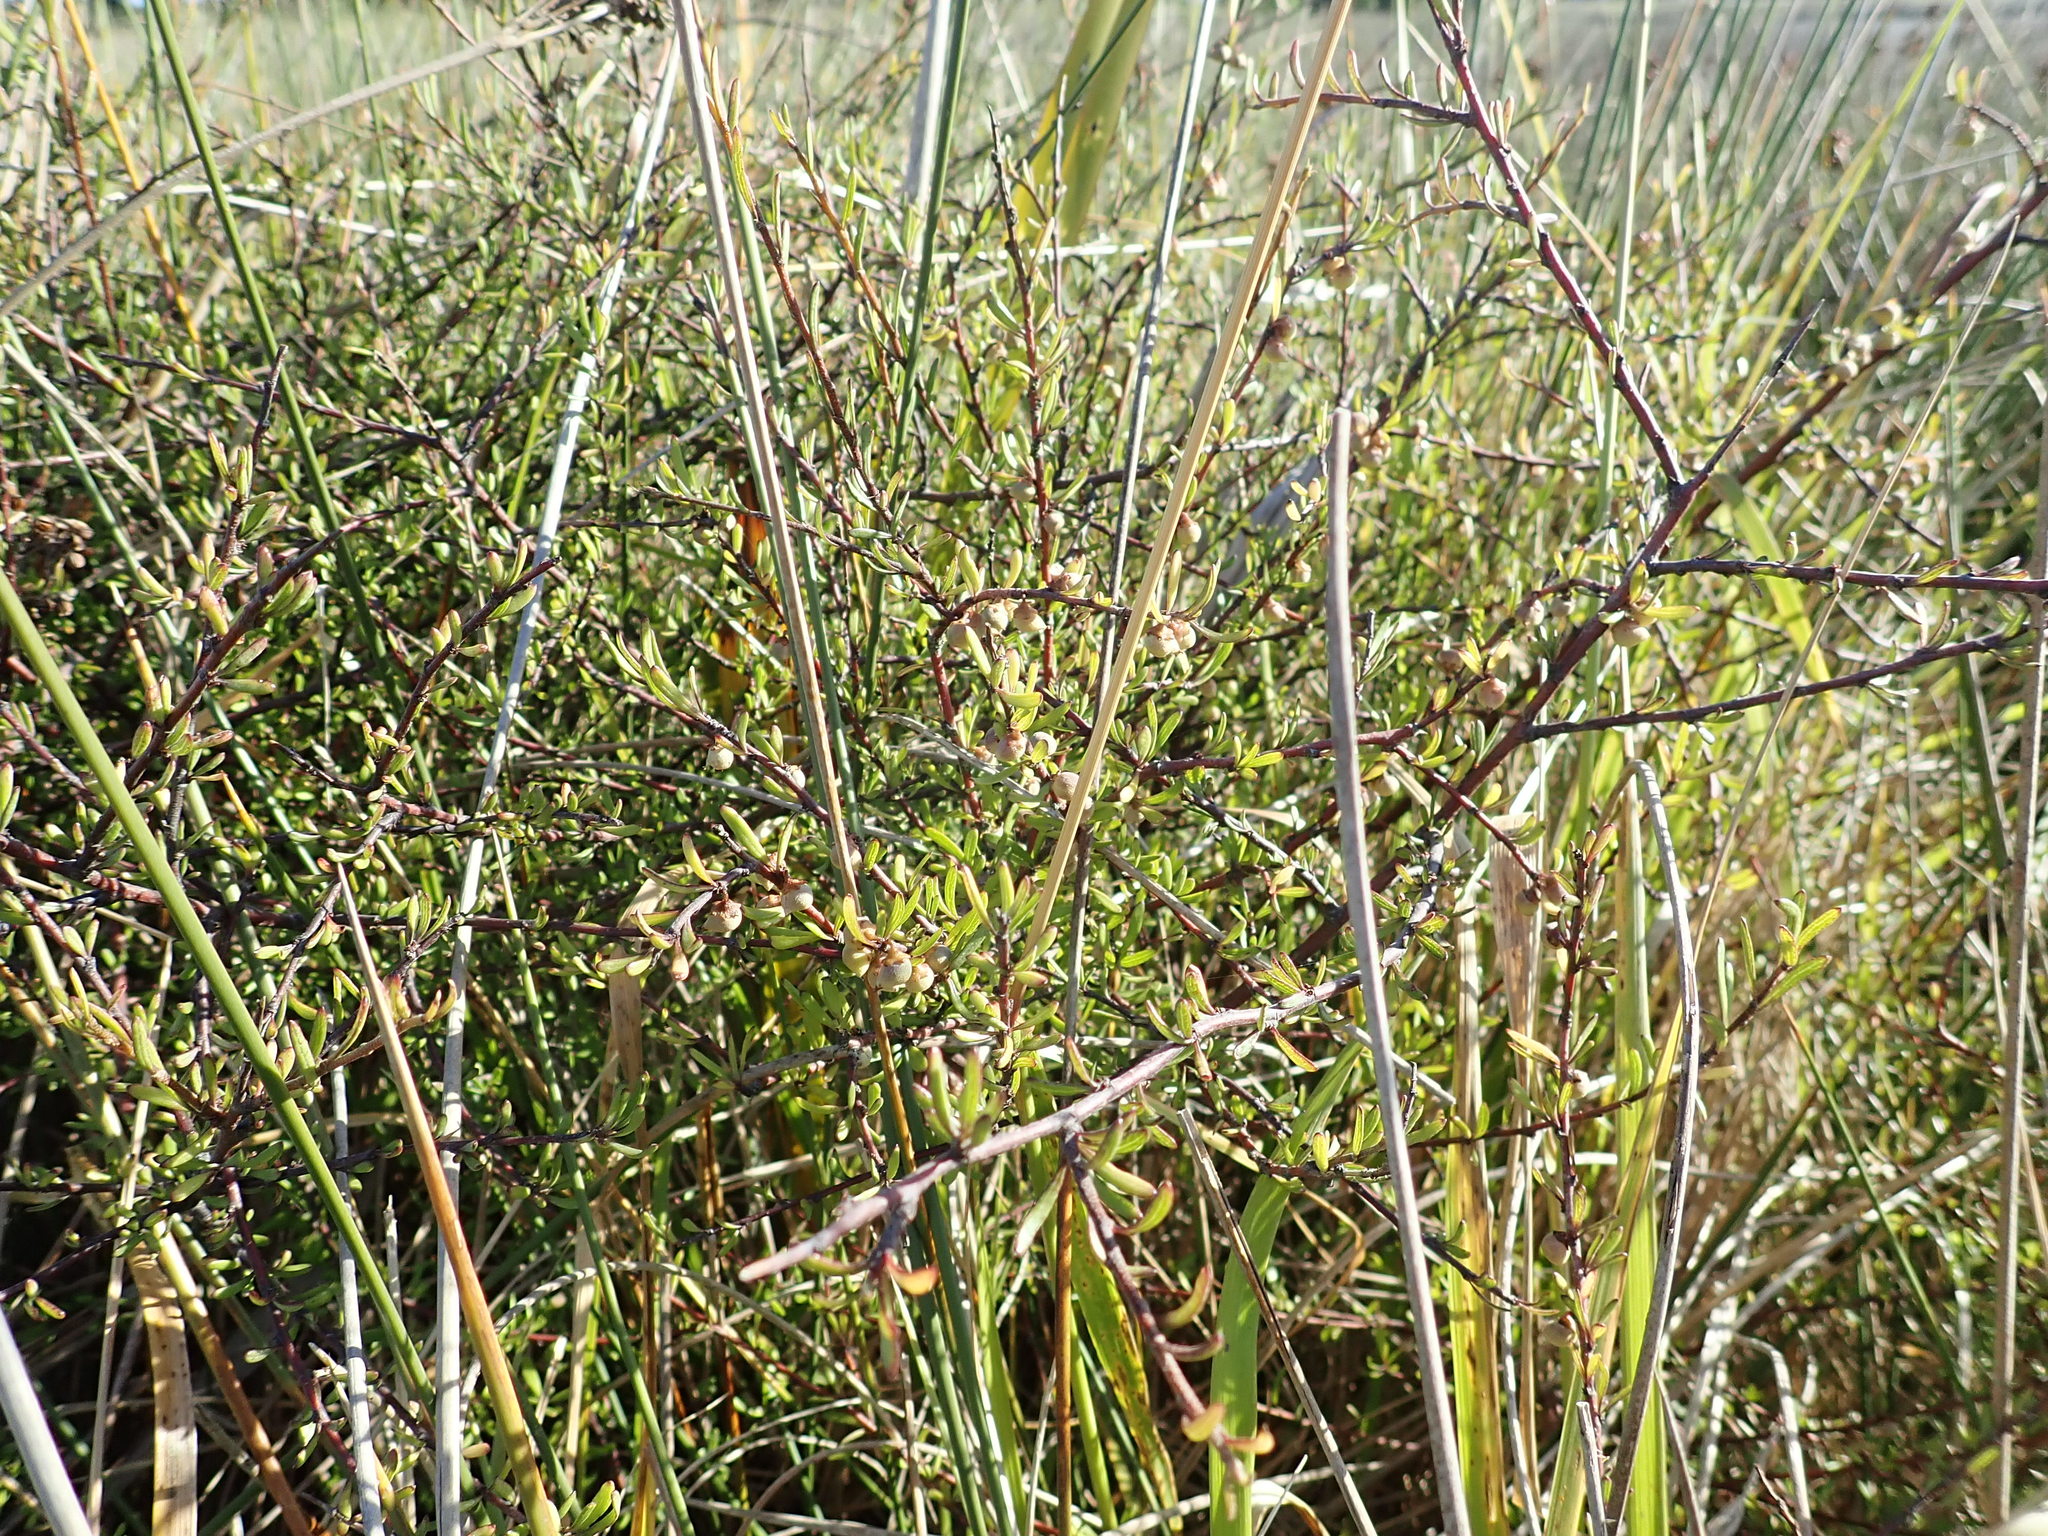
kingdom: Plantae
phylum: Tracheophyta
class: Magnoliopsida
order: Malvales
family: Malvaceae
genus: Plagianthus
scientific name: Plagianthus divaricatus
